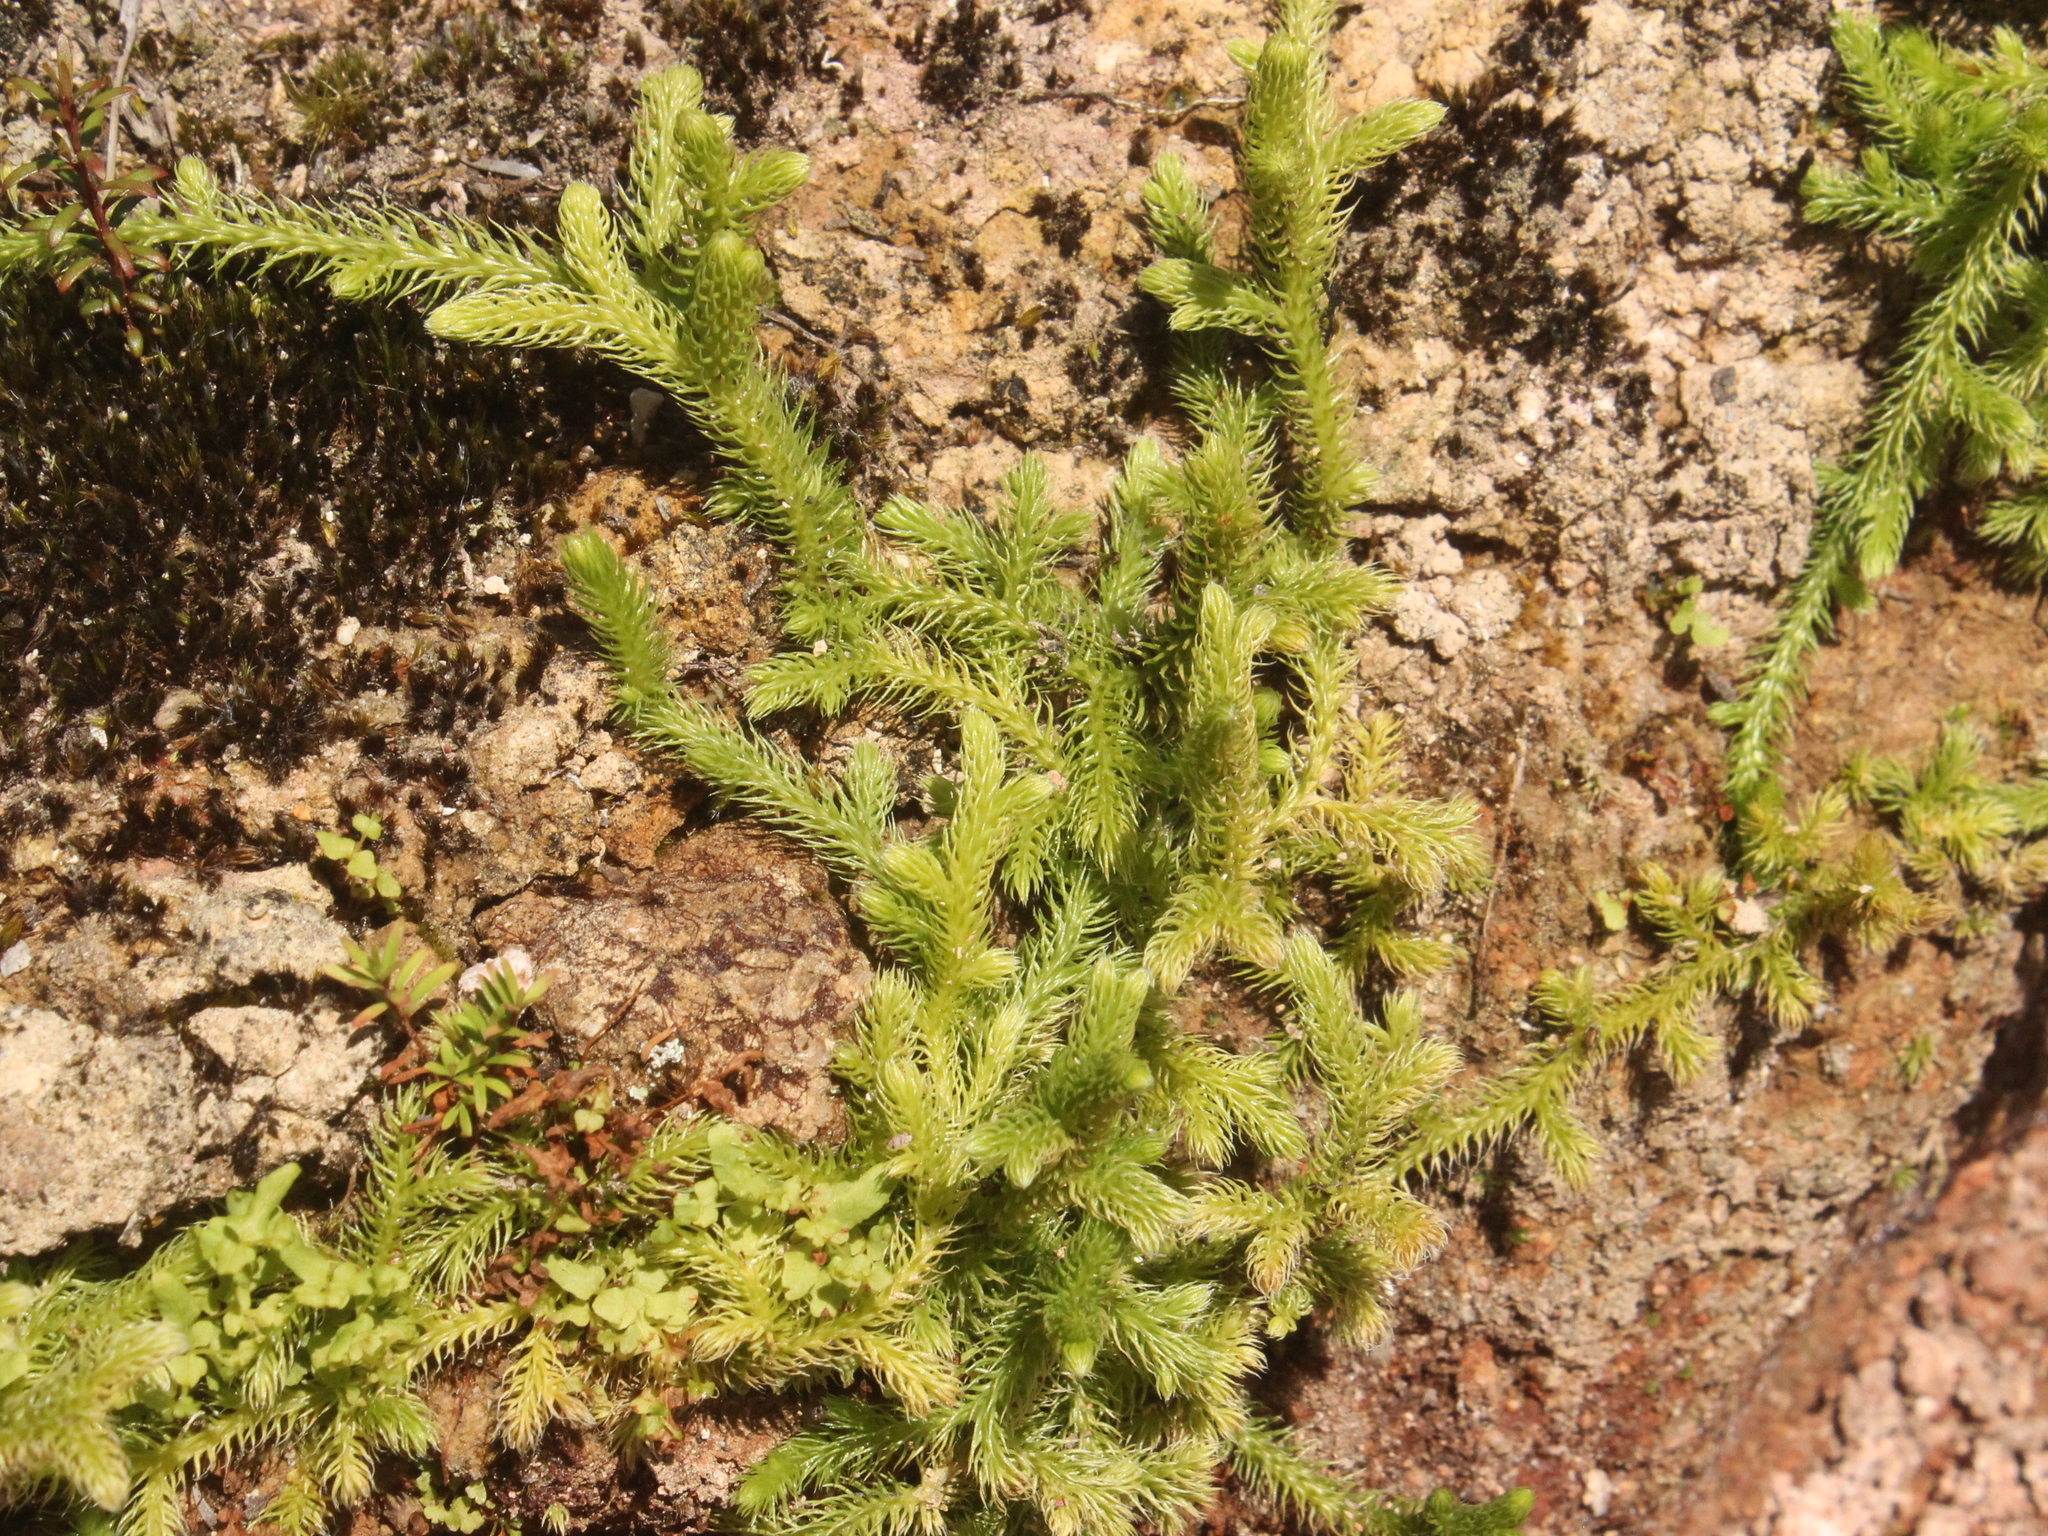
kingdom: Plantae
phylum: Tracheophyta
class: Lycopodiopsida
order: Lycopodiales
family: Lycopodiaceae
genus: Palhinhaea
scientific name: Palhinhaea cernua
